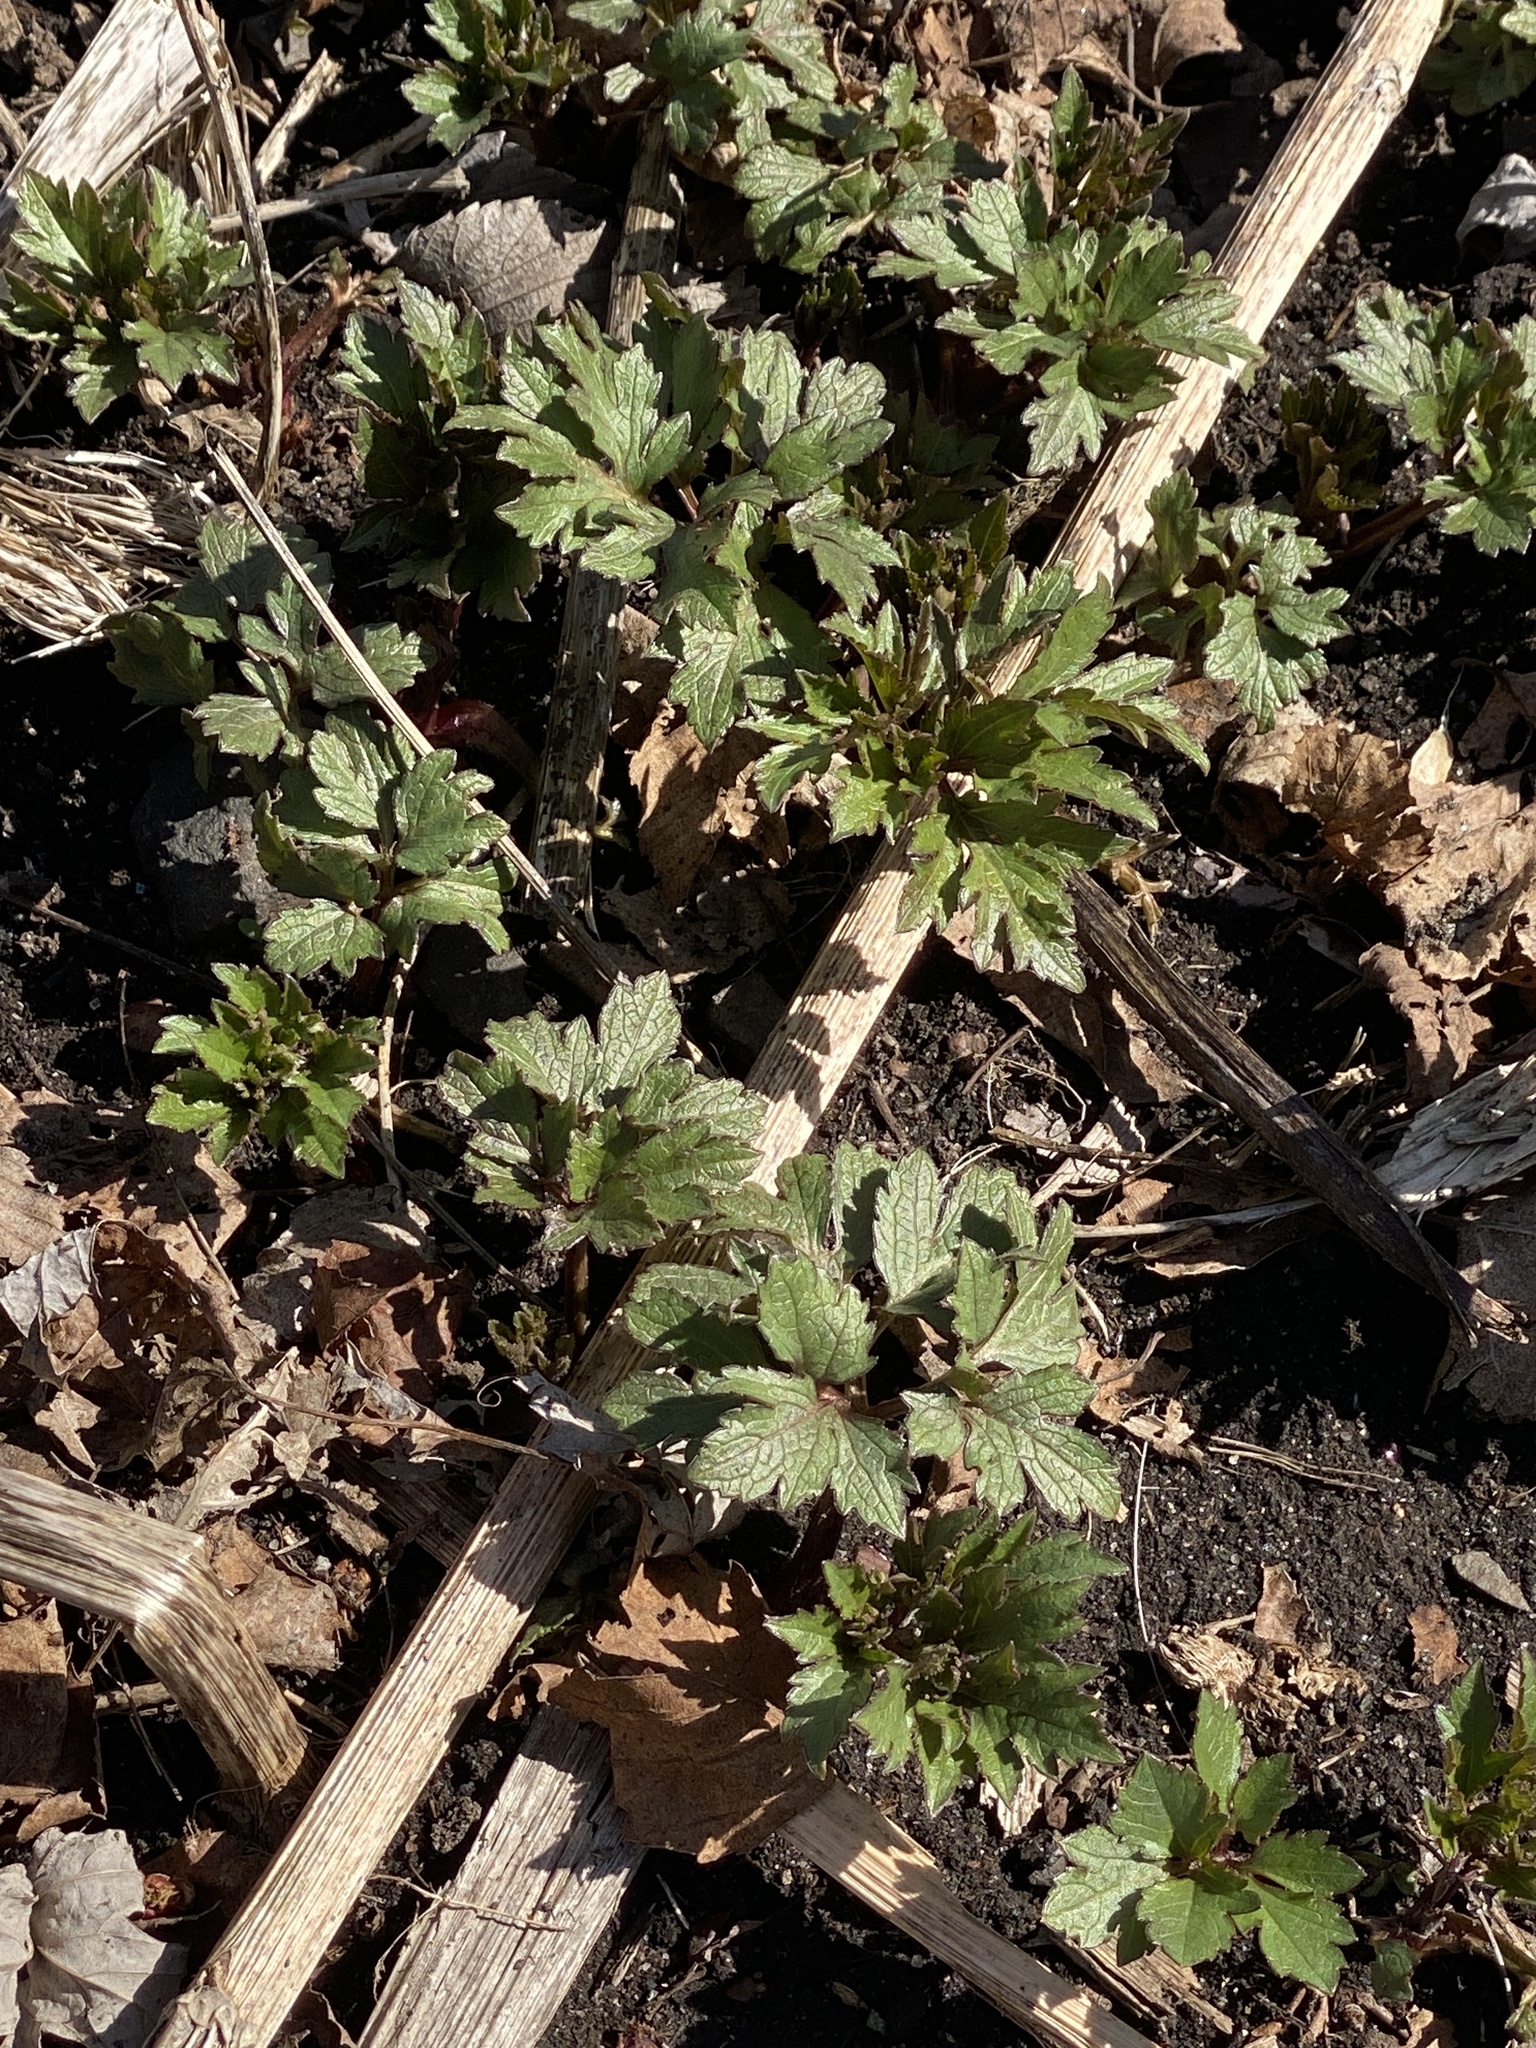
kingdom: Plantae
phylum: Tracheophyta
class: Magnoliopsida
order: Asterales
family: Asteraceae
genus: Rudbeckia
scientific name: Rudbeckia laciniata
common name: Coneflower
